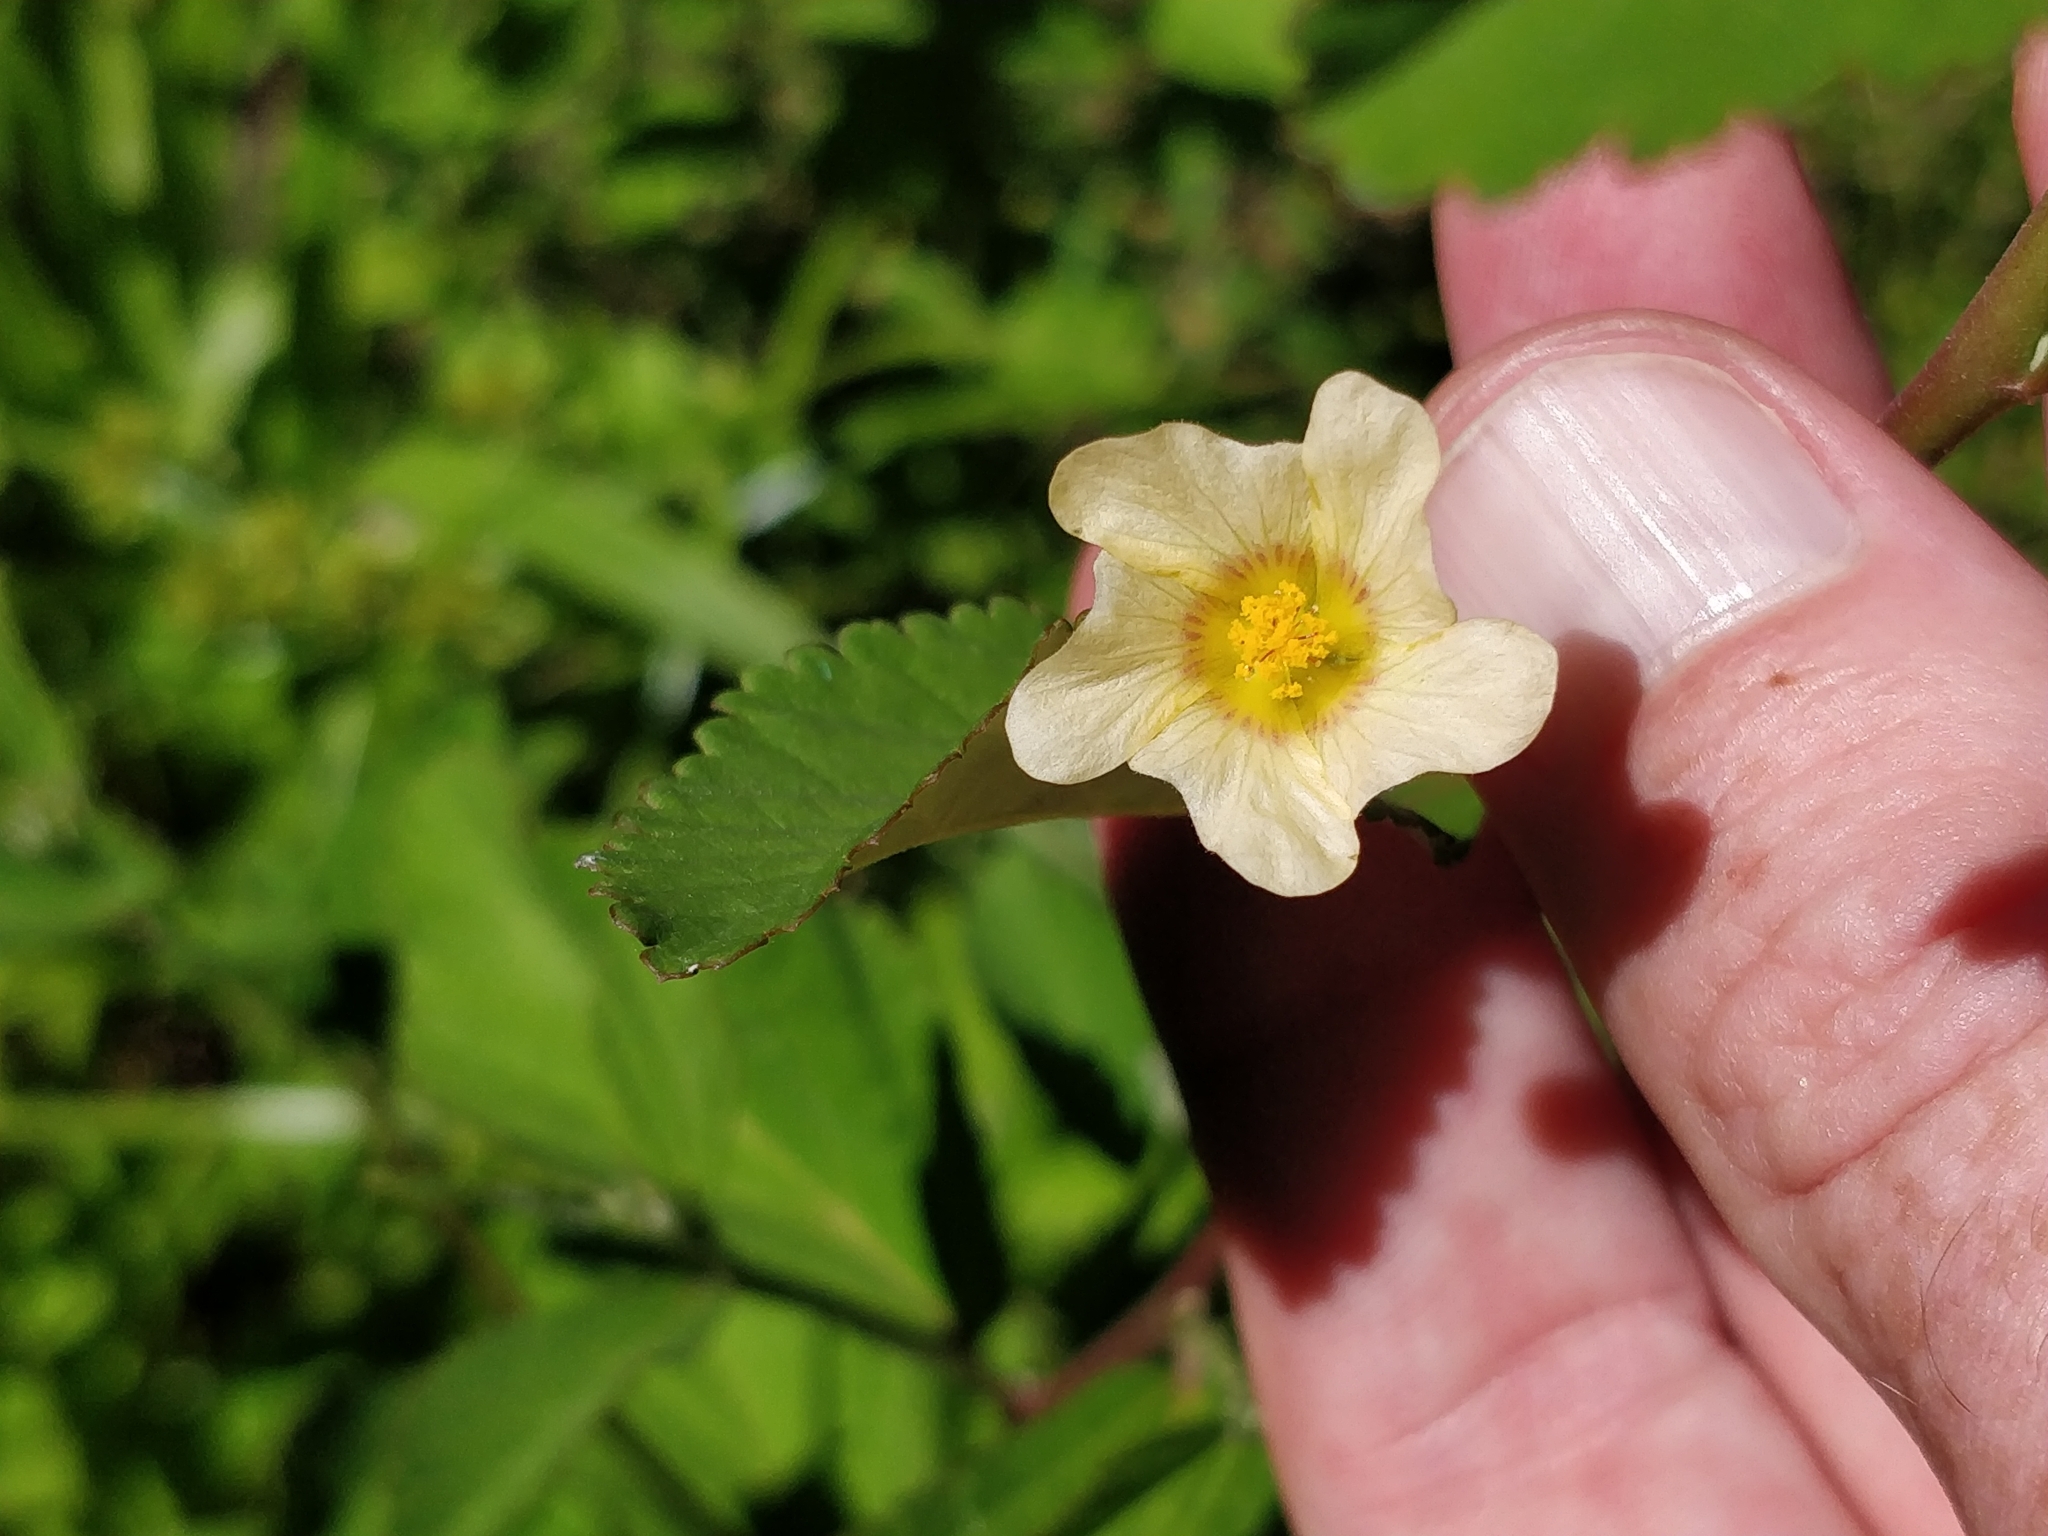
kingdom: Plantae
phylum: Tracheophyta
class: Magnoliopsida
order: Malvales
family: Malvaceae
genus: Sida
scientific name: Sida rhombifolia
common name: Queensland-hemp
